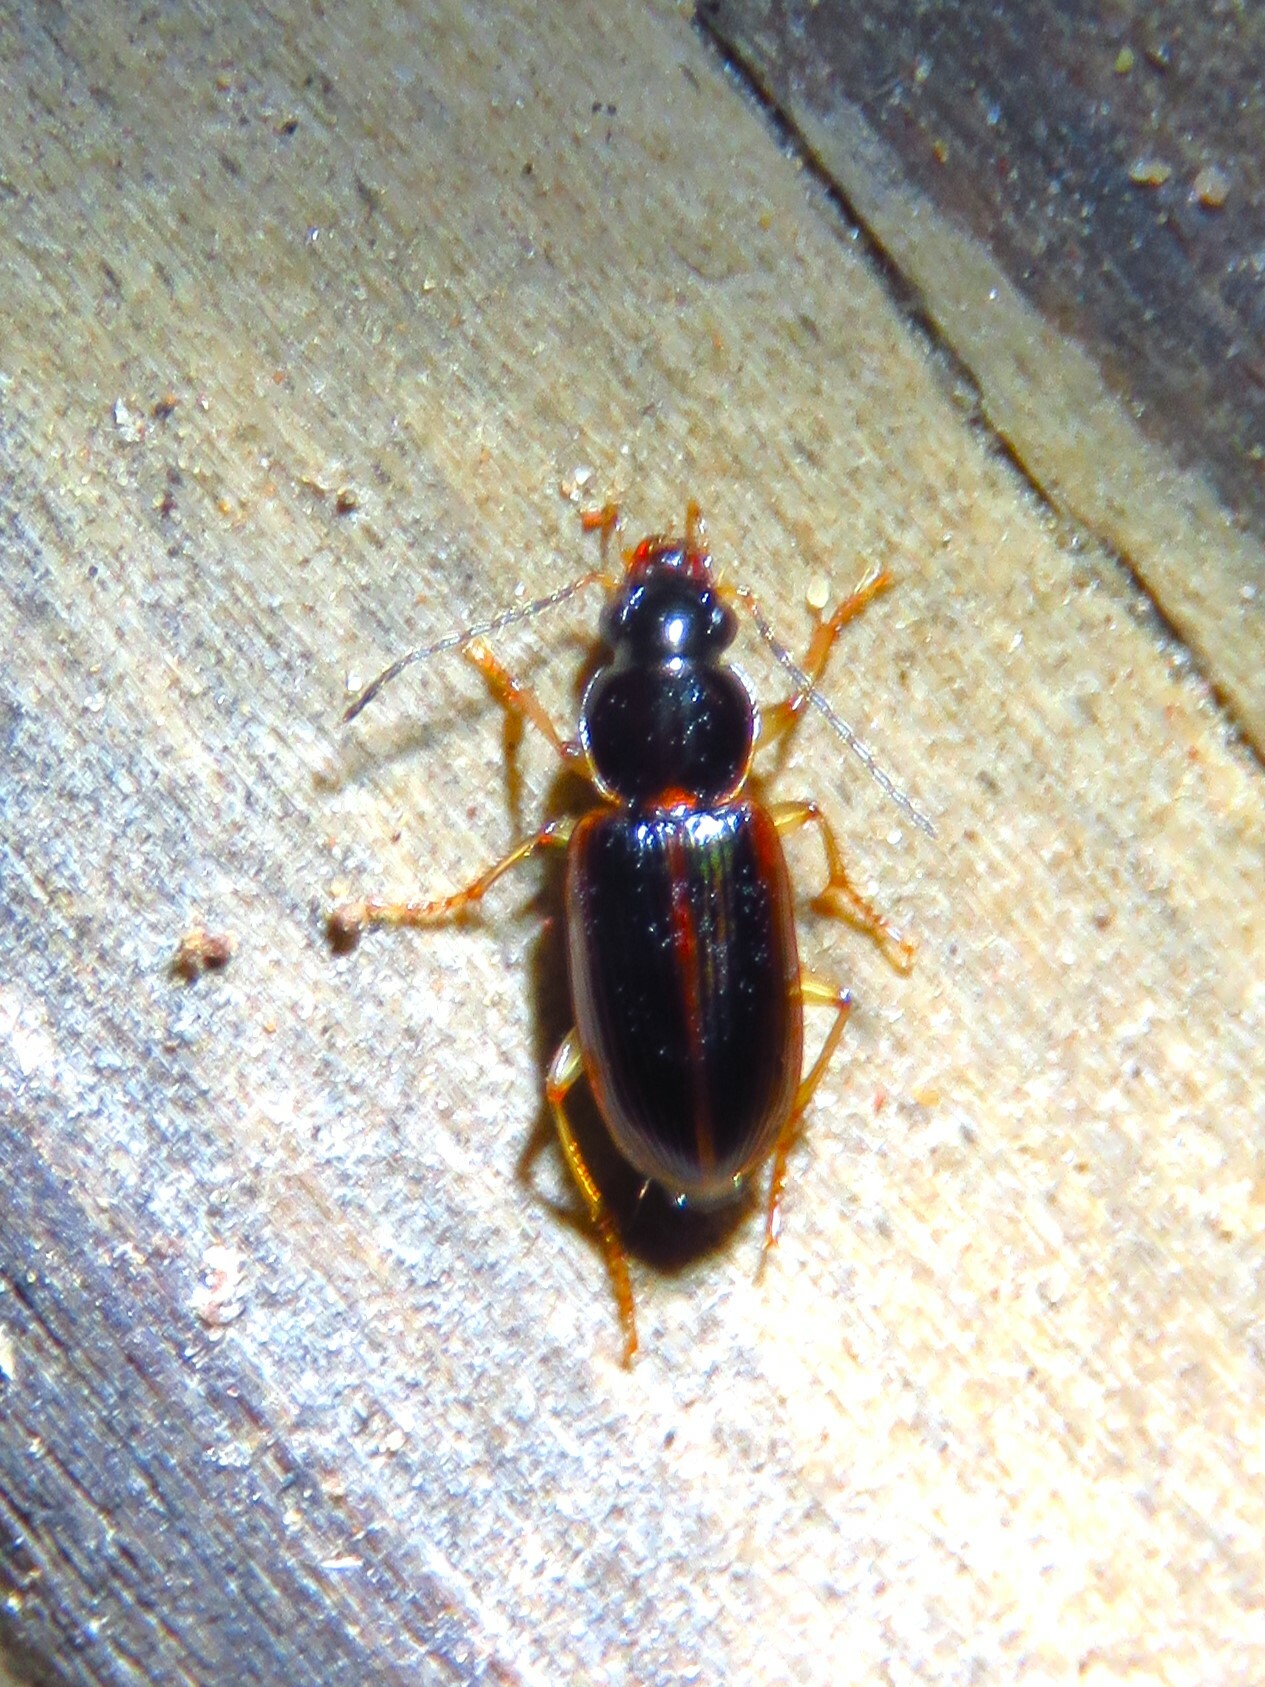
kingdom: Animalia
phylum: Arthropoda
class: Insecta
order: Coleoptera
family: Carabidae
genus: Stenolophus
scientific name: Stenolophus ochropezus
